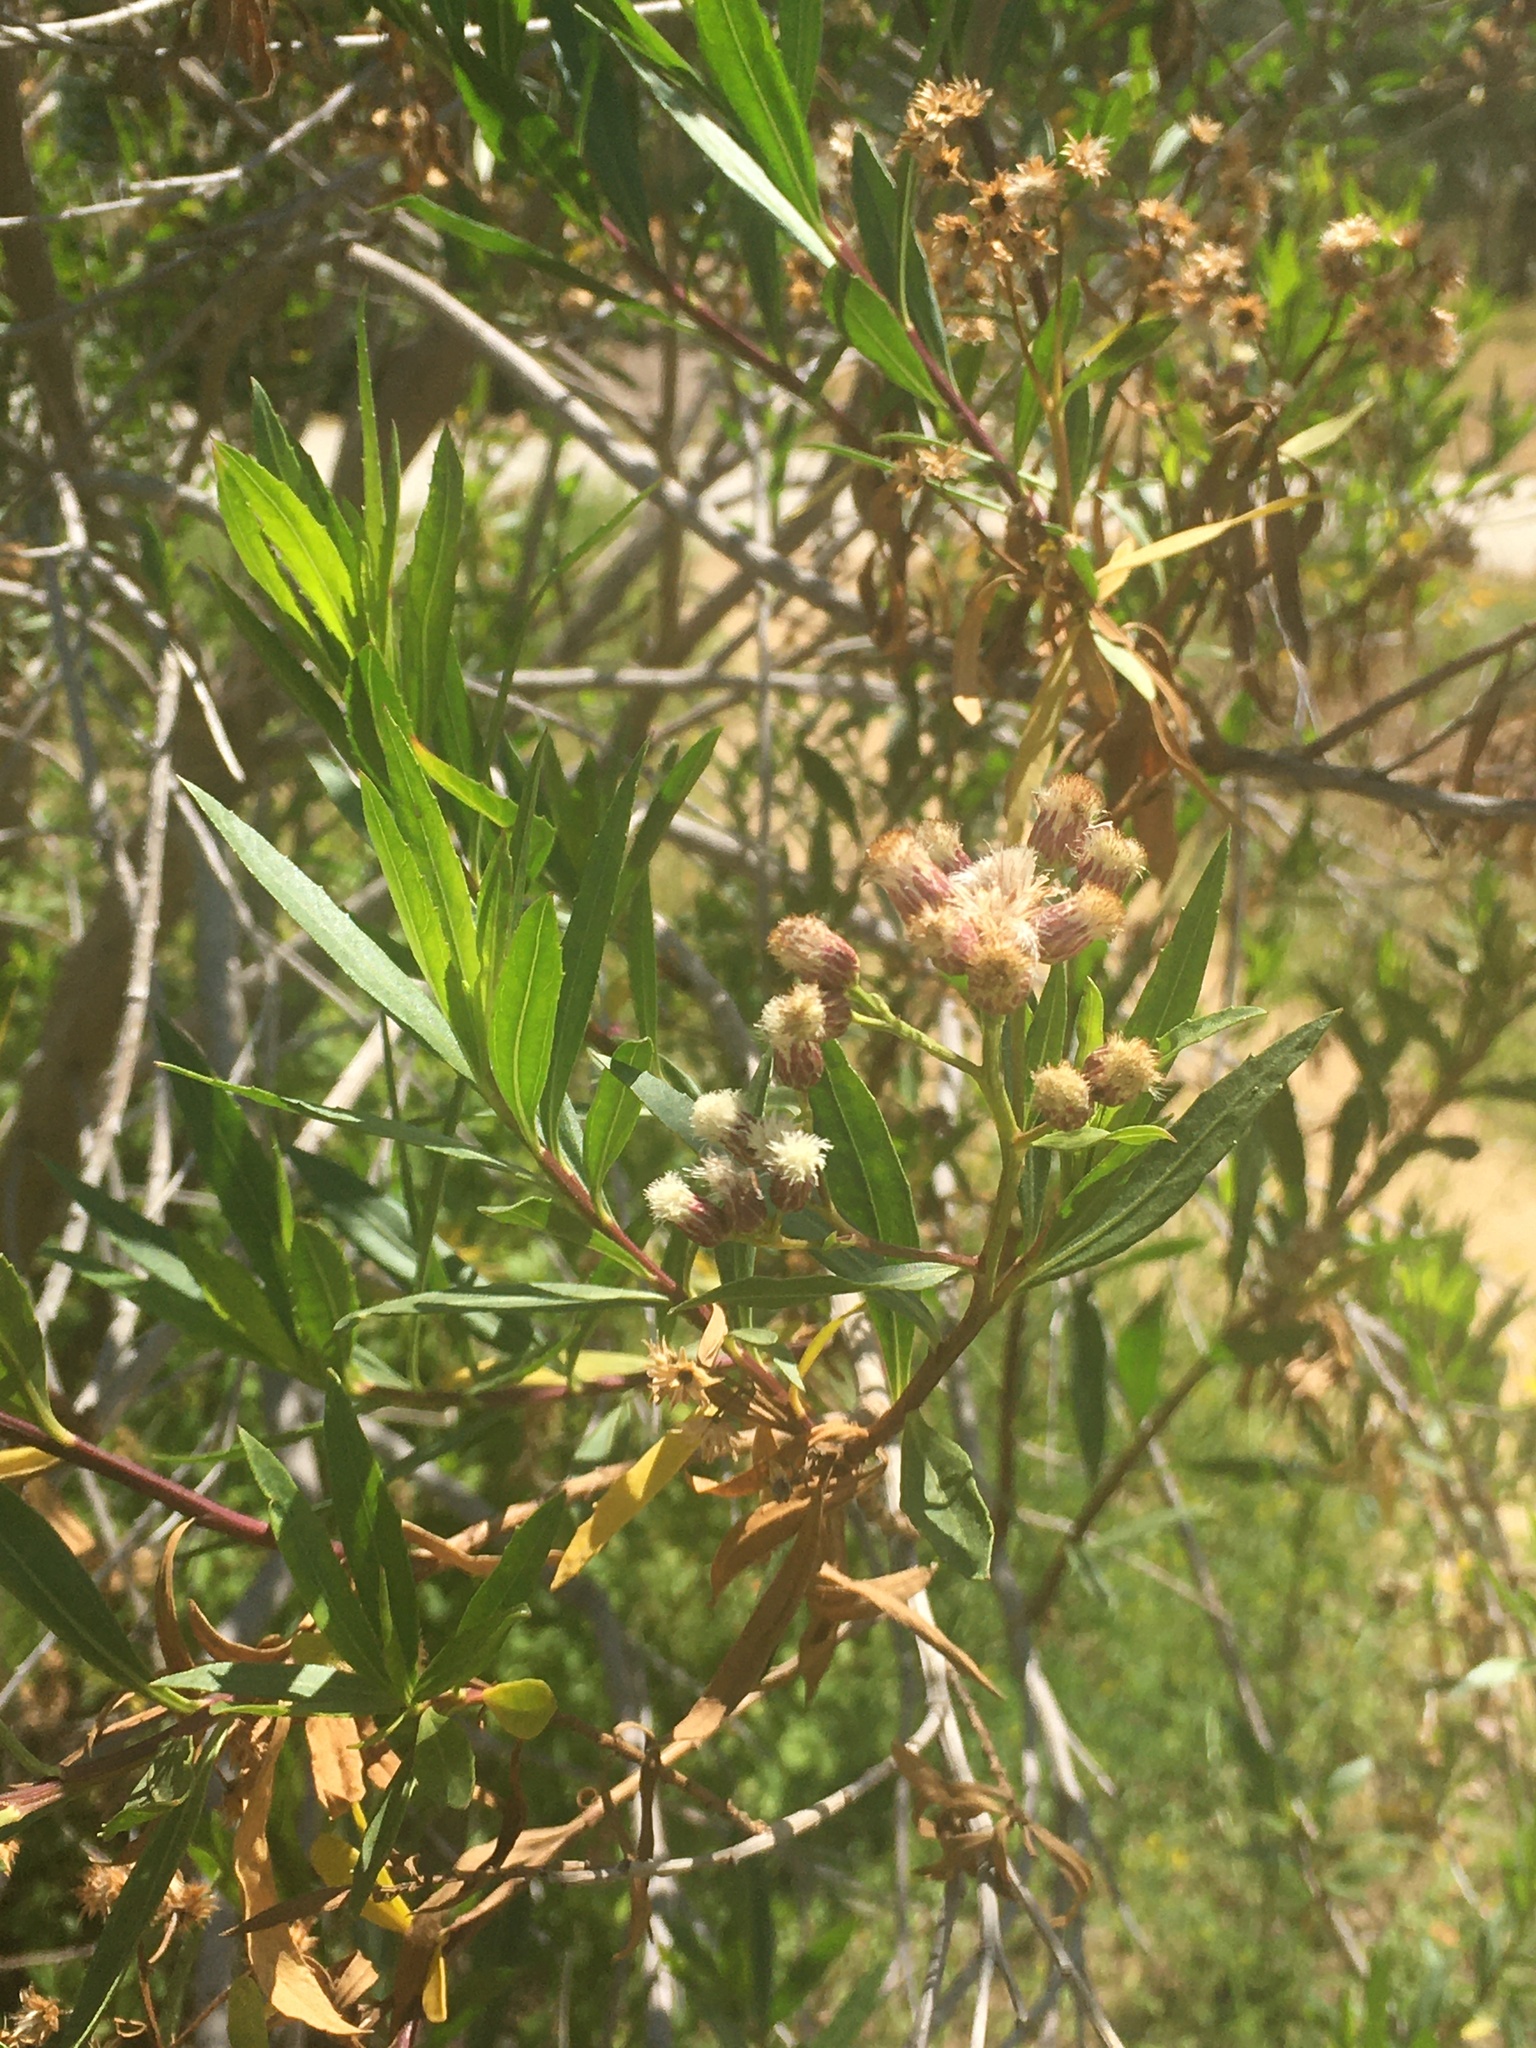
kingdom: Plantae
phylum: Tracheophyta
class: Magnoliopsida
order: Asterales
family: Asteraceae
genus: Baccharis
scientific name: Baccharis salicifolia
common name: Sticky baccharis
